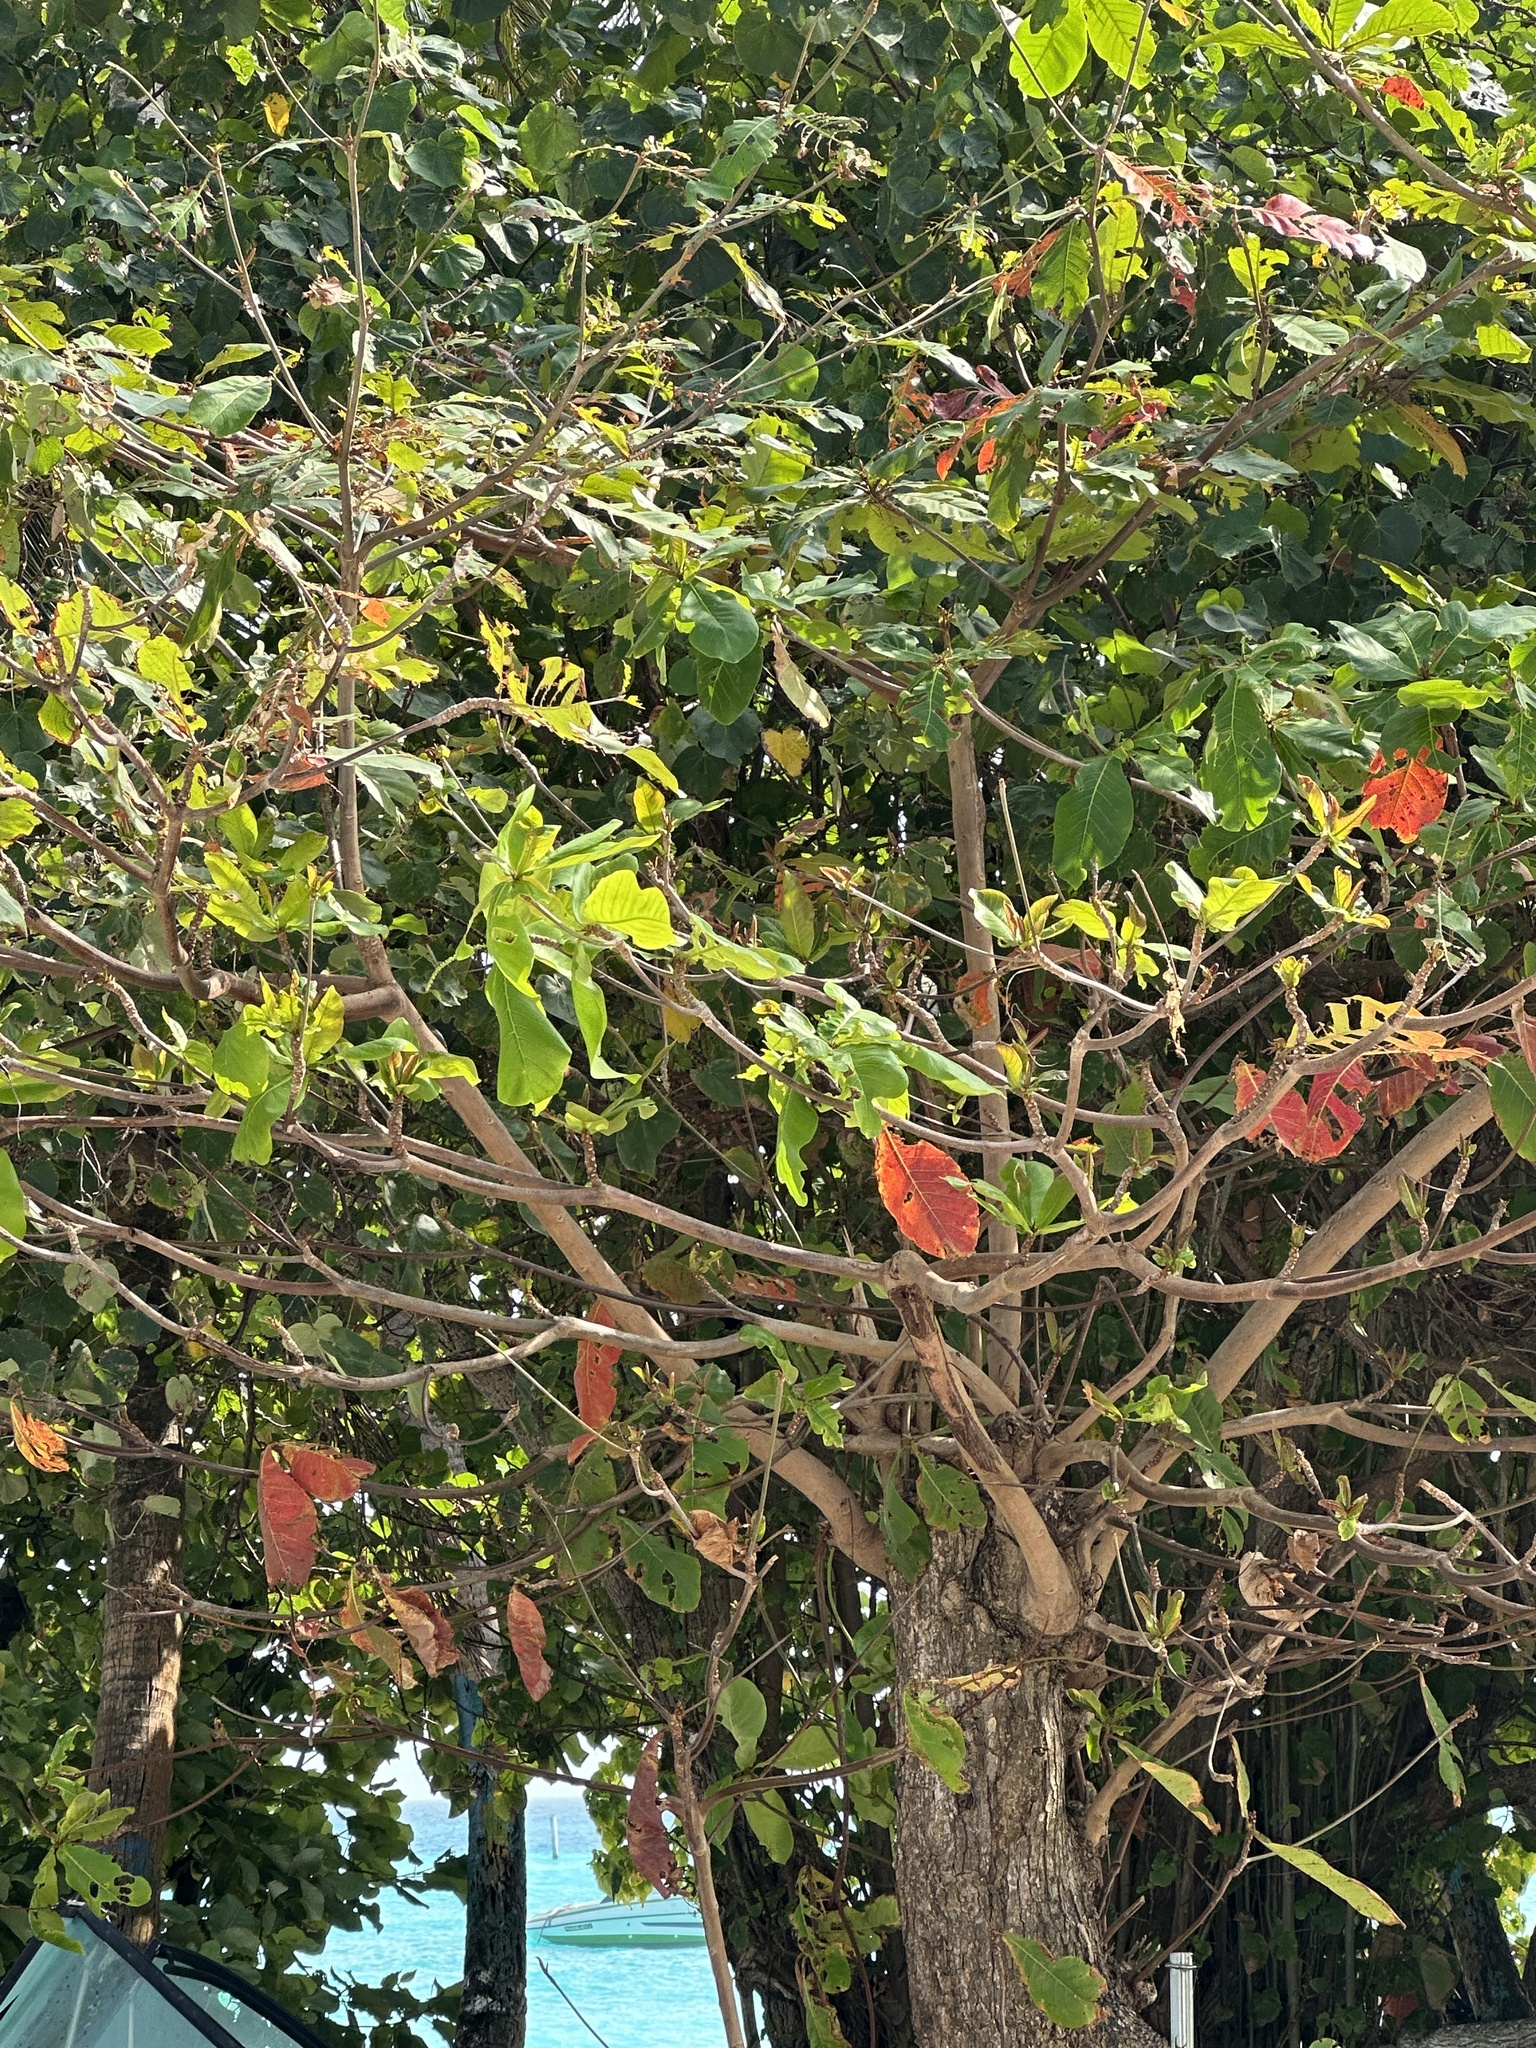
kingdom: Plantae
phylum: Tracheophyta
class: Magnoliopsida
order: Myrtales
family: Combretaceae
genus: Terminalia
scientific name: Terminalia catappa
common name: Tropical almond
